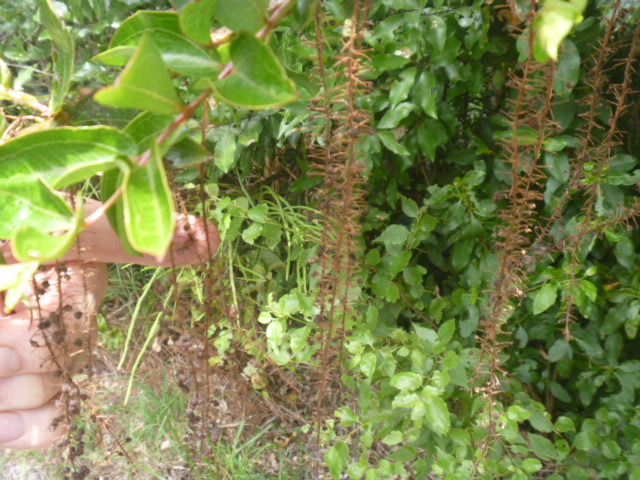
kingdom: Plantae
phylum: Tracheophyta
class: Magnoliopsida
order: Cucurbitales
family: Coriariaceae
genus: Coriaria
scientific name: Coriaria arborea
